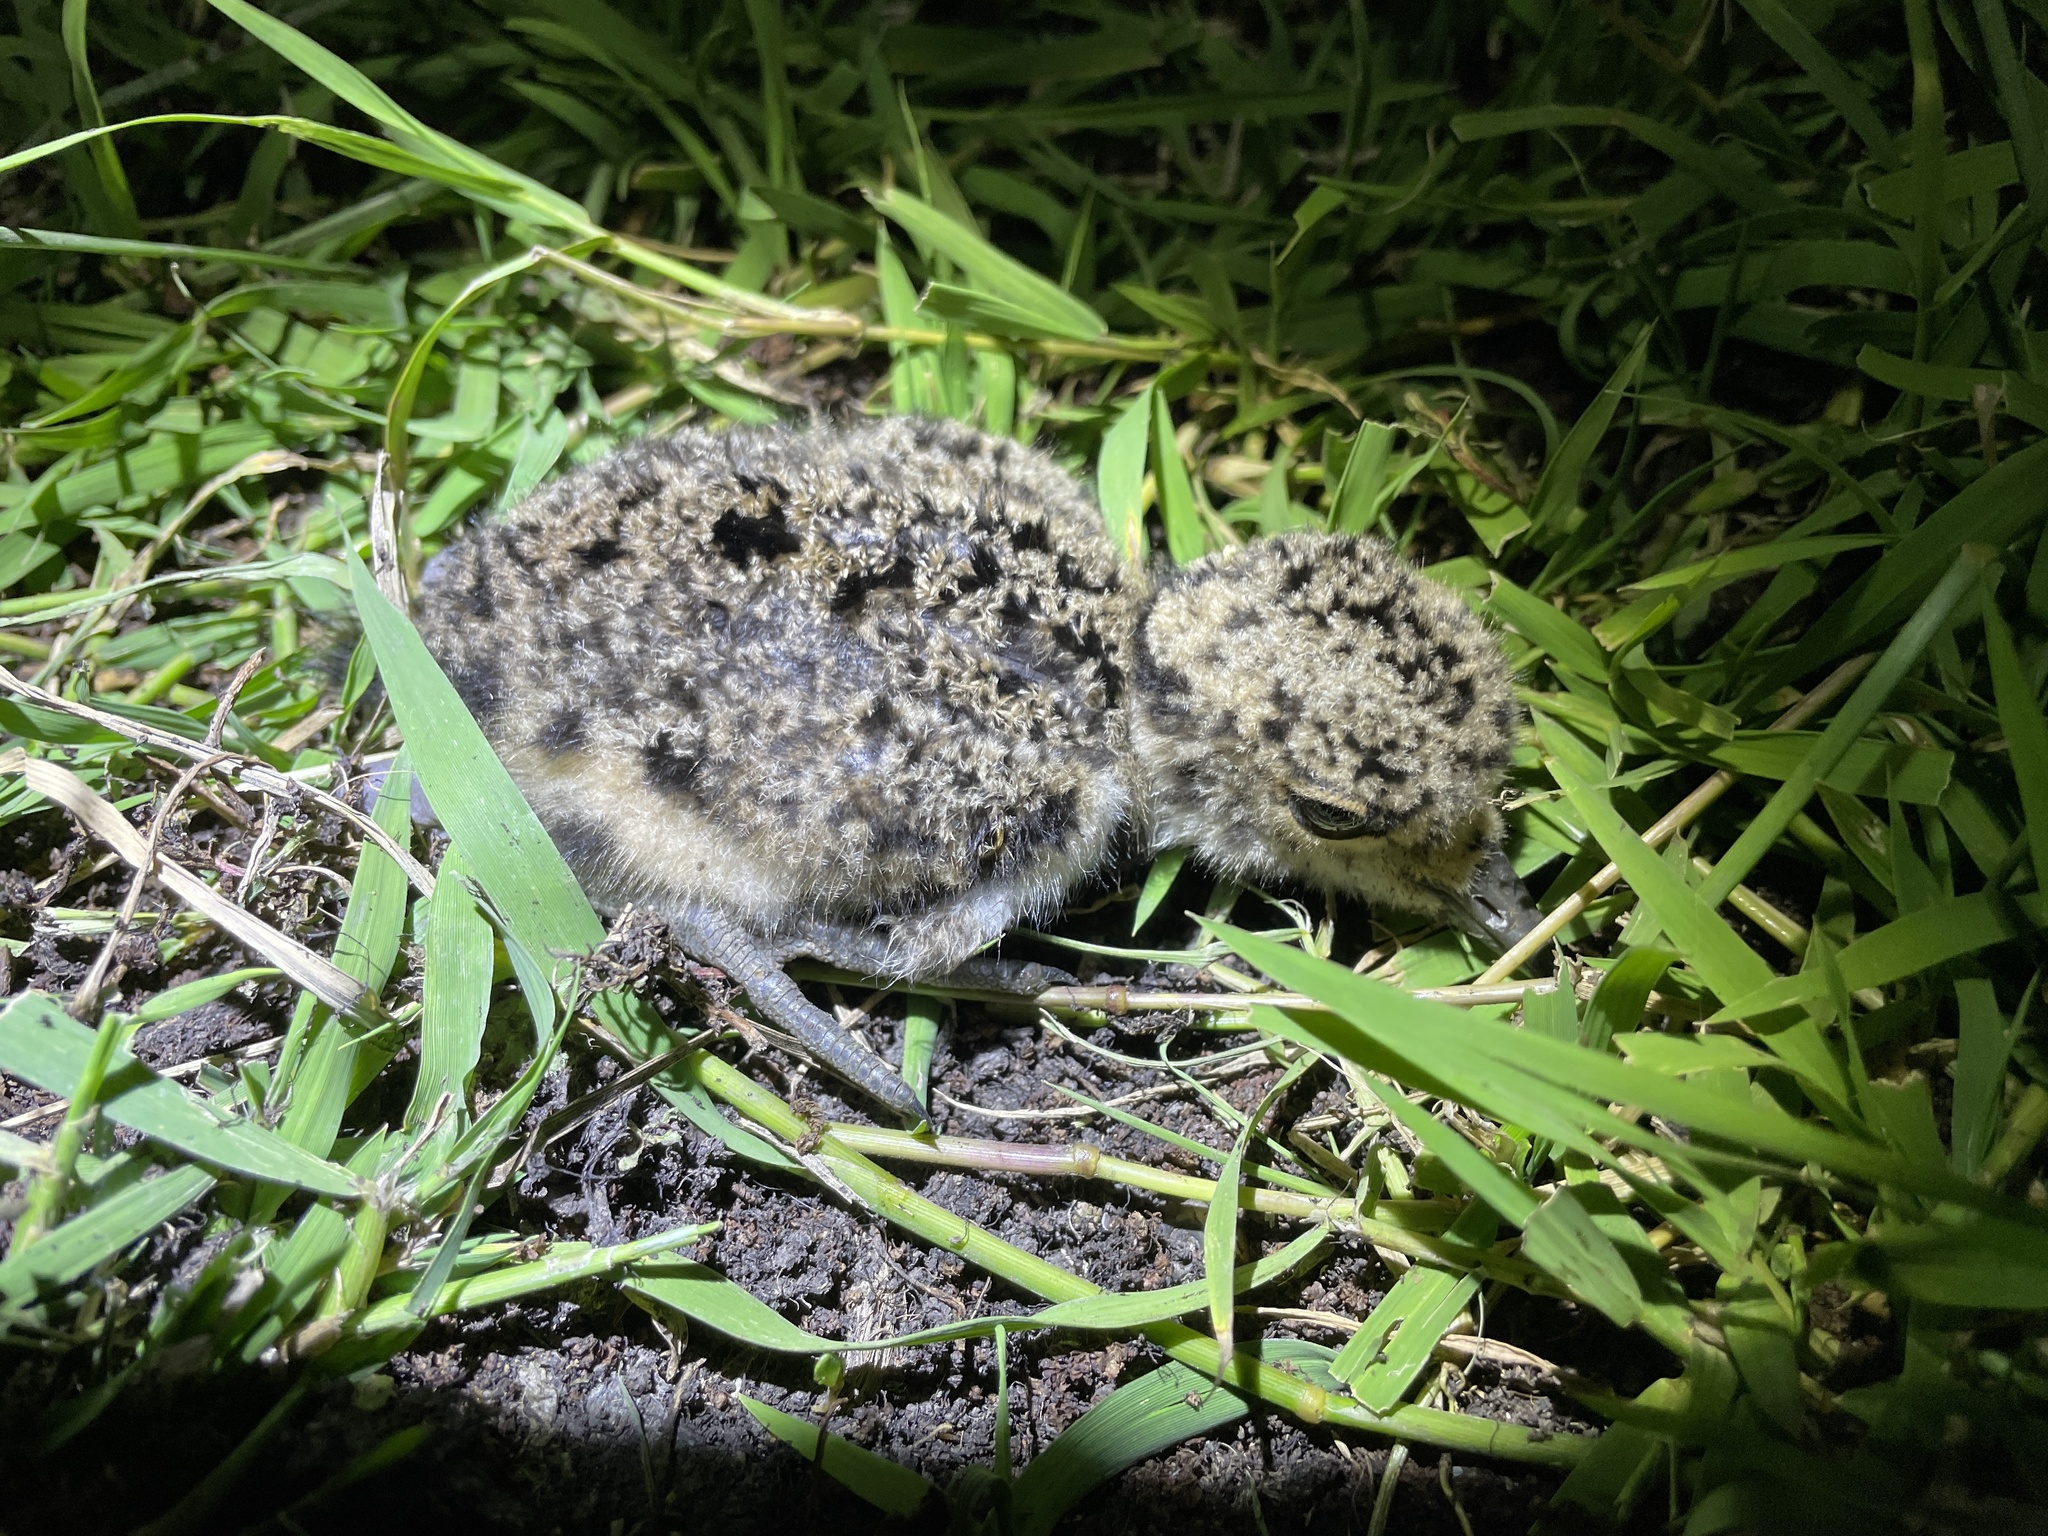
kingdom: Animalia
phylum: Chordata
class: Aves
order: Charadriiformes
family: Charadriidae
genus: Vanellus
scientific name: Vanellus chilensis
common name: Southern lapwing
